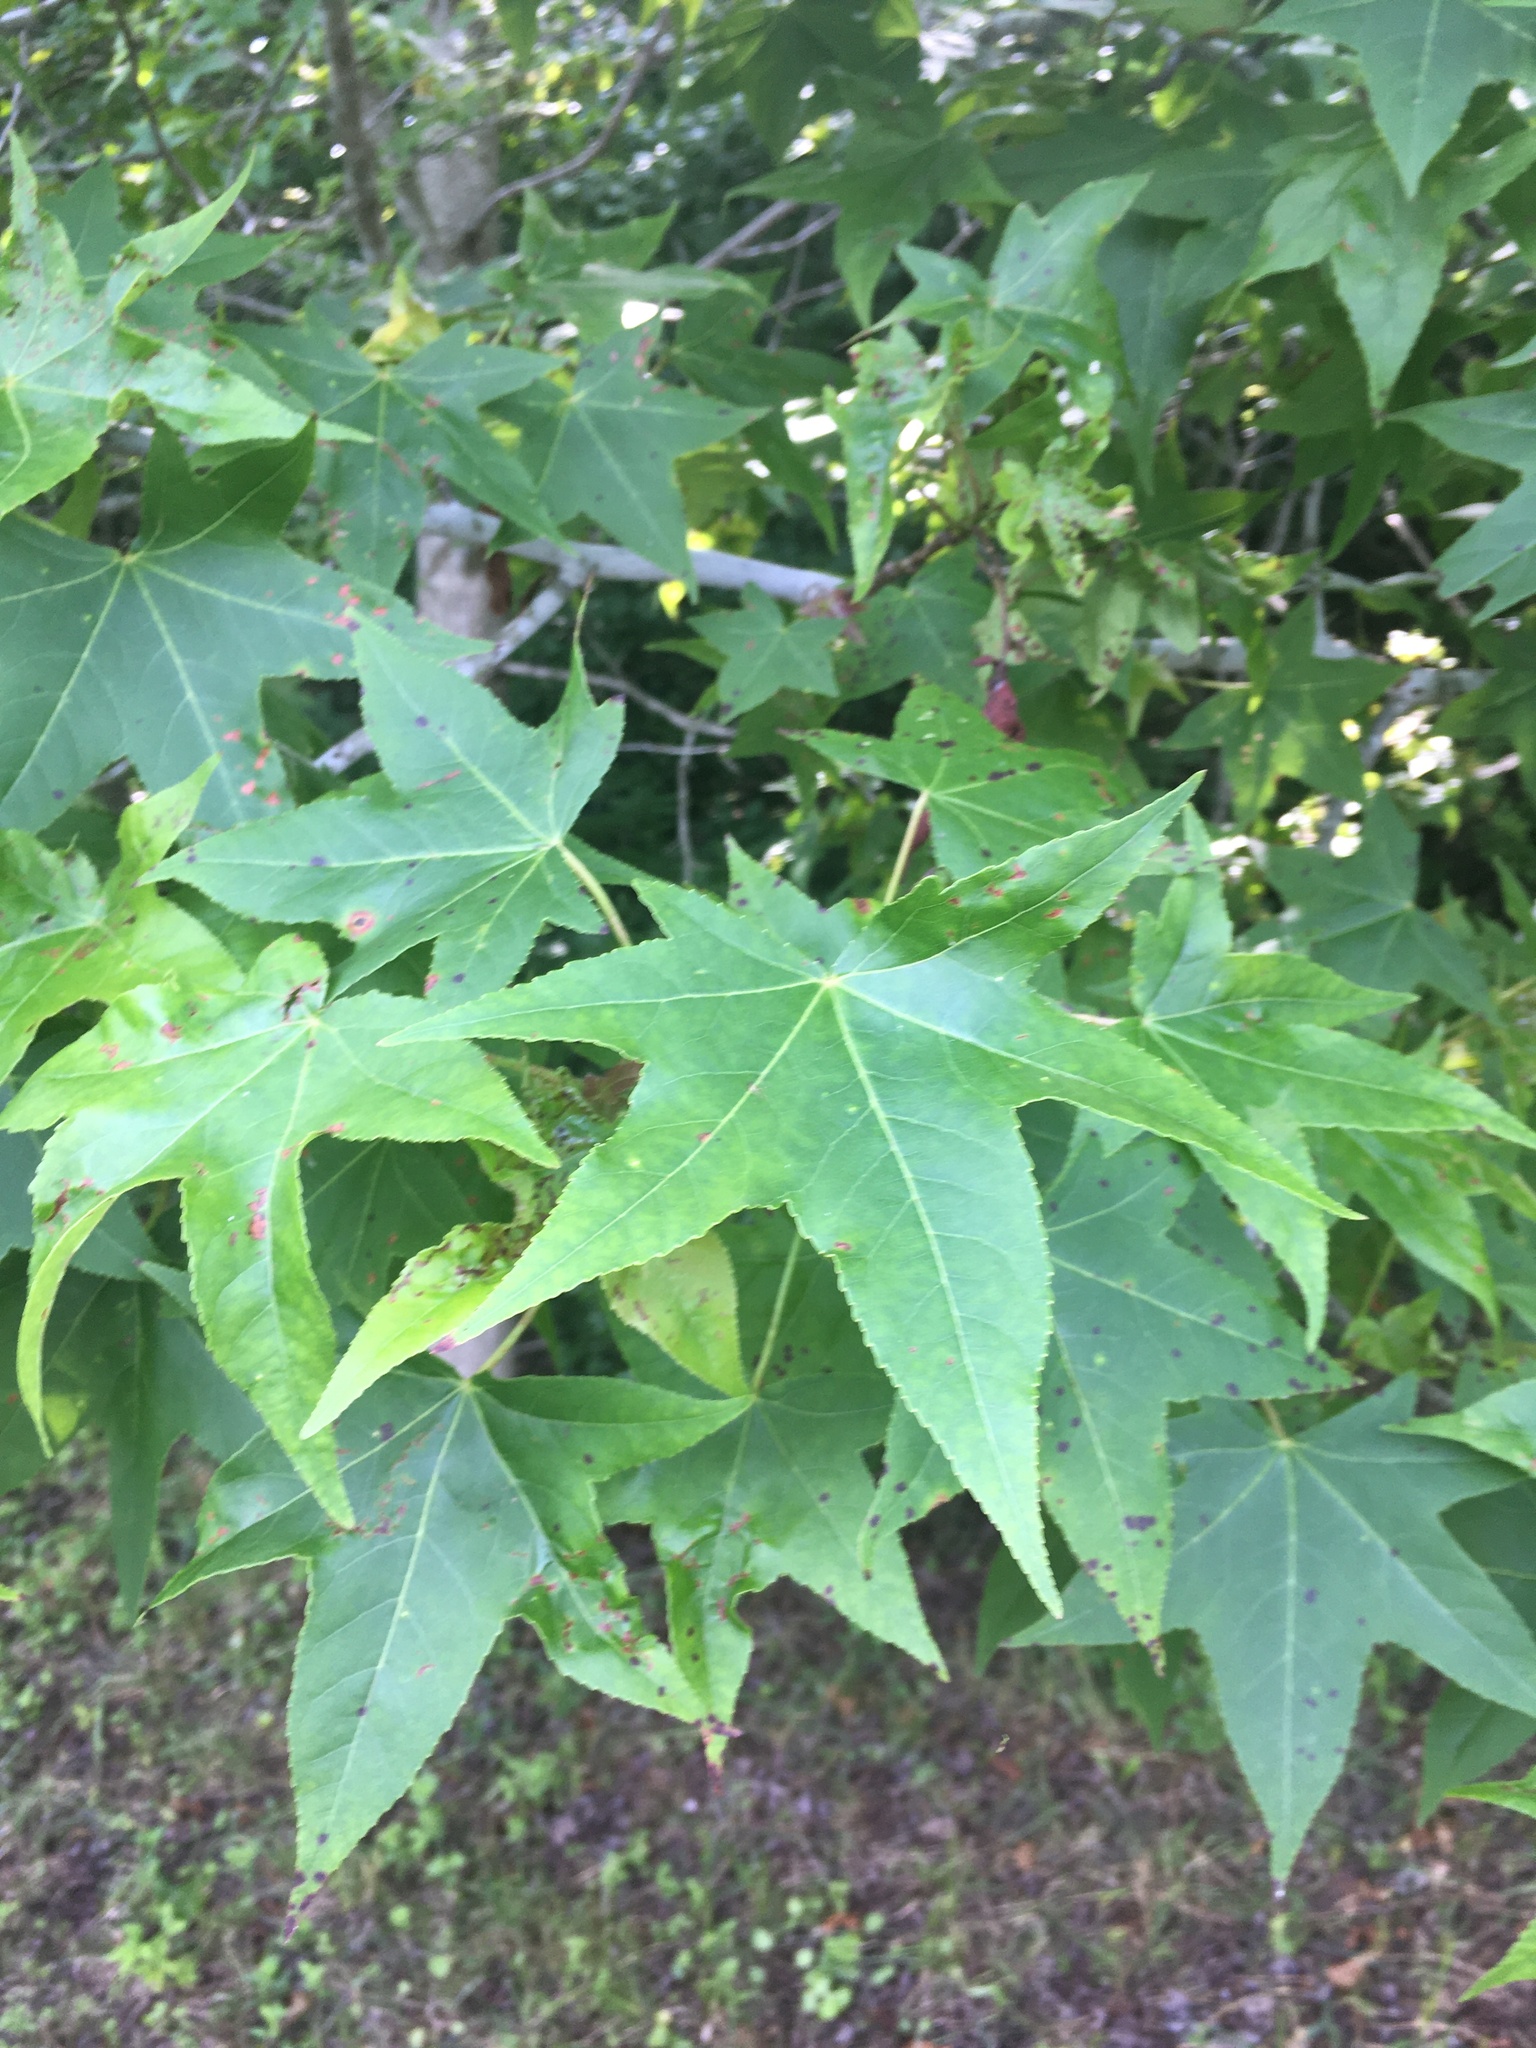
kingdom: Plantae
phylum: Tracheophyta
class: Magnoliopsida
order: Saxifragales
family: Altingiaceae
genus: Liquidambar
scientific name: Liquidambar styraciflua
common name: Sweet gum
